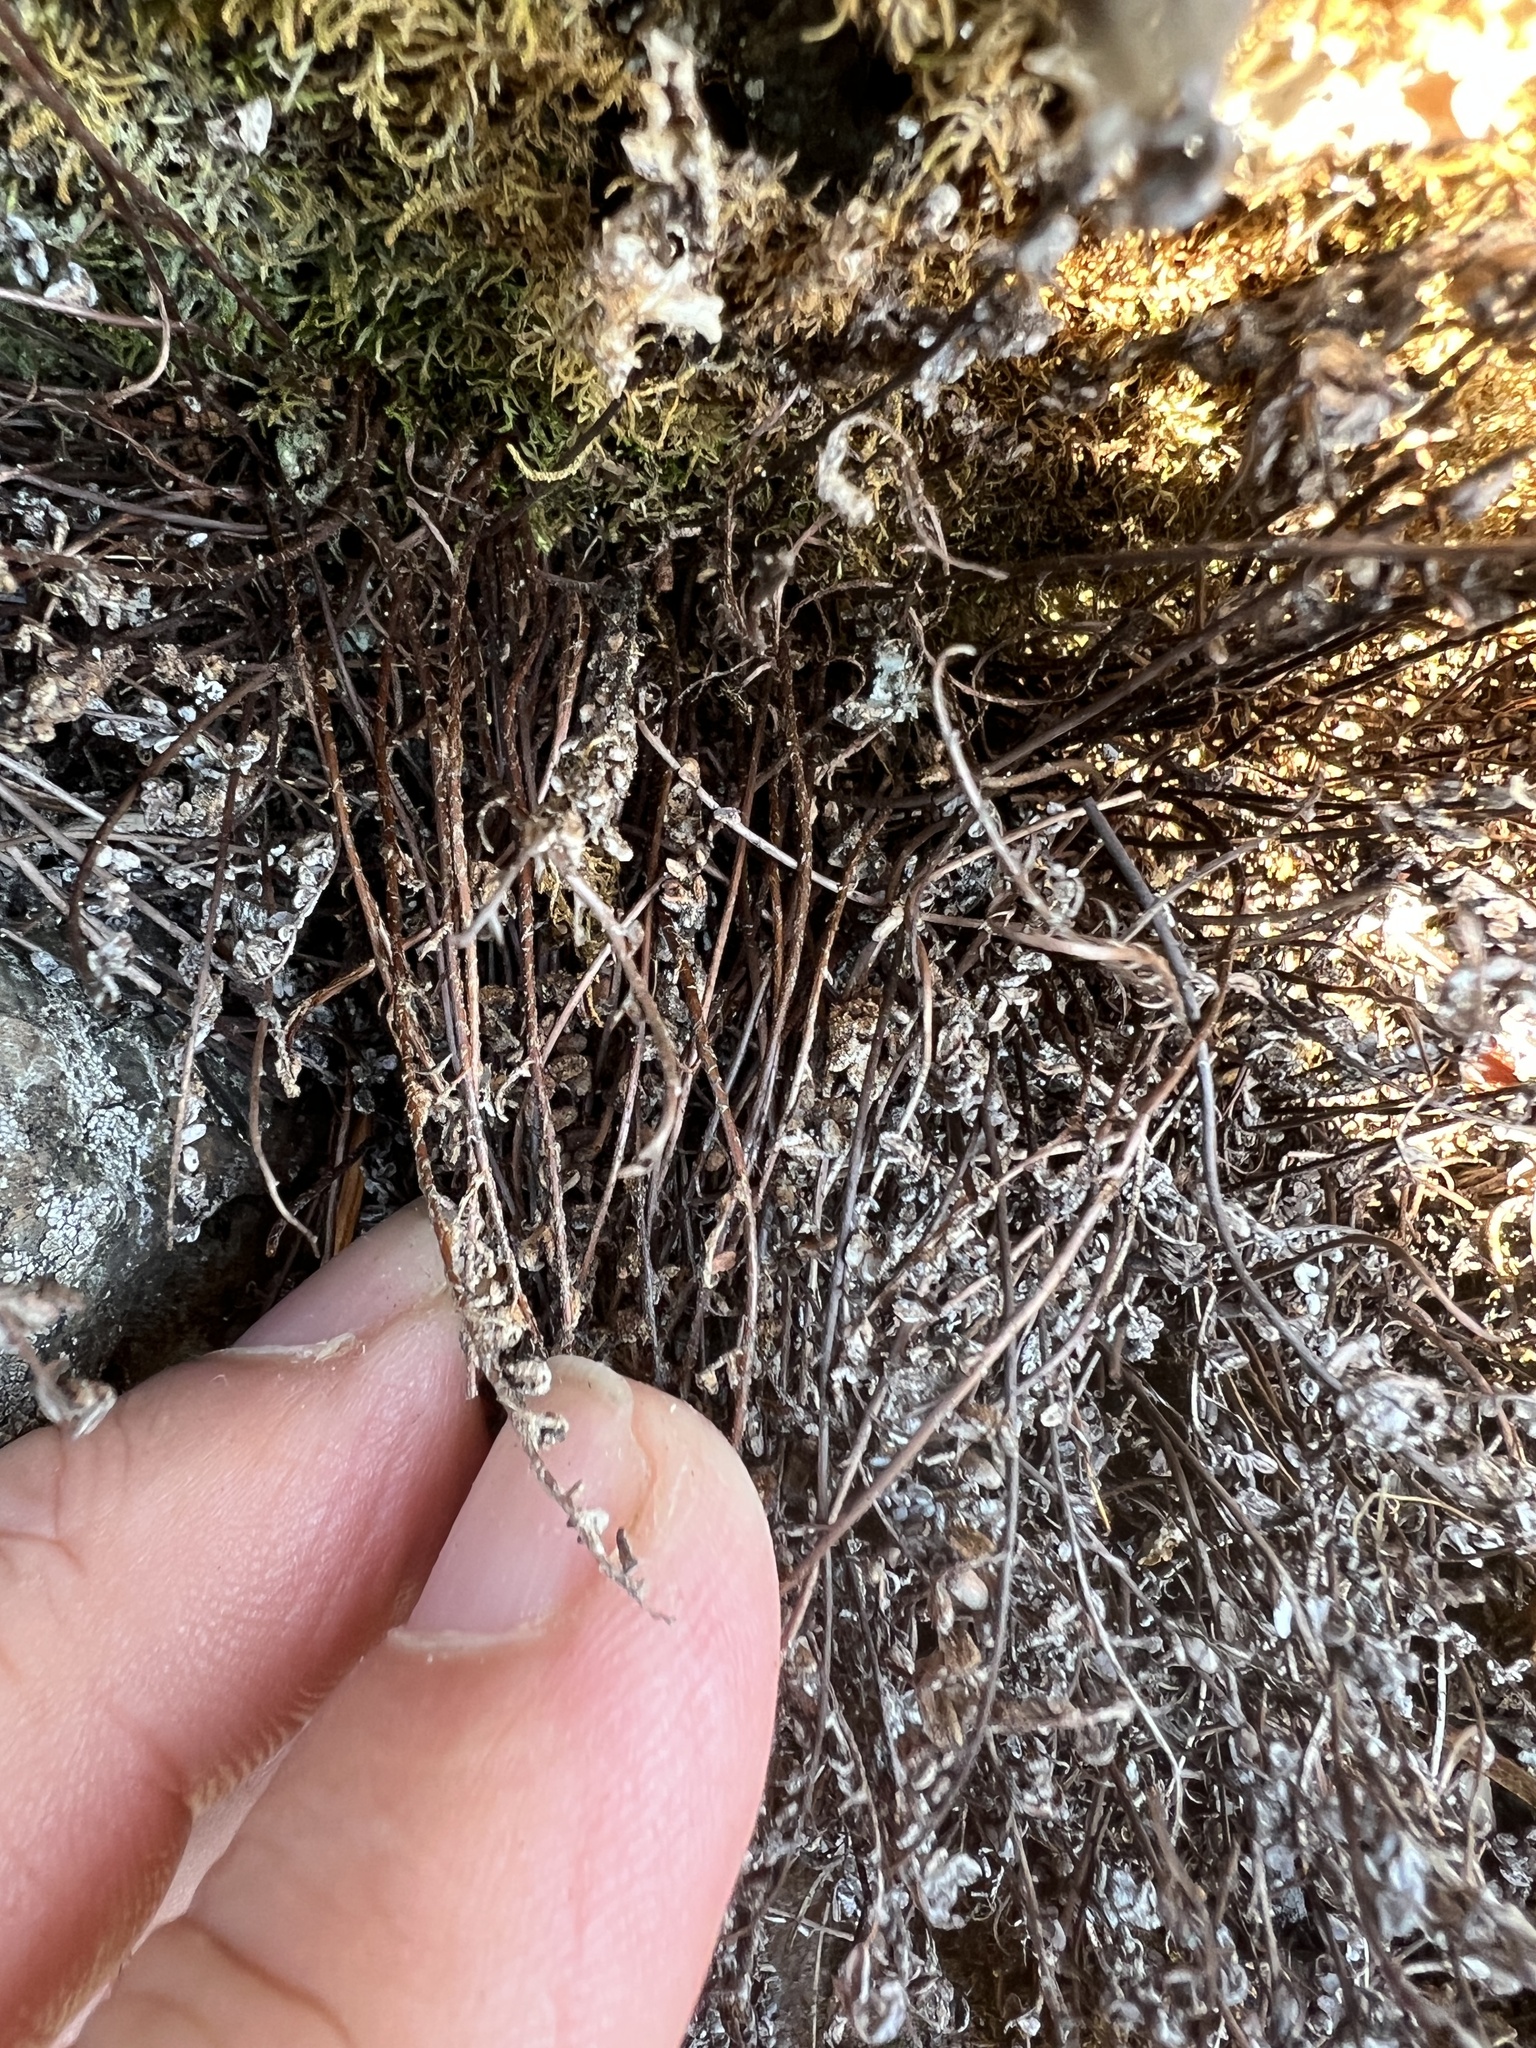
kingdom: Plantae
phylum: Tracheophyta
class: Polypodiopsida
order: Polypodiales
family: Pteridaceae
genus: Myriopteris
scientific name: Myriopteris gracillima
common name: Lace fern
